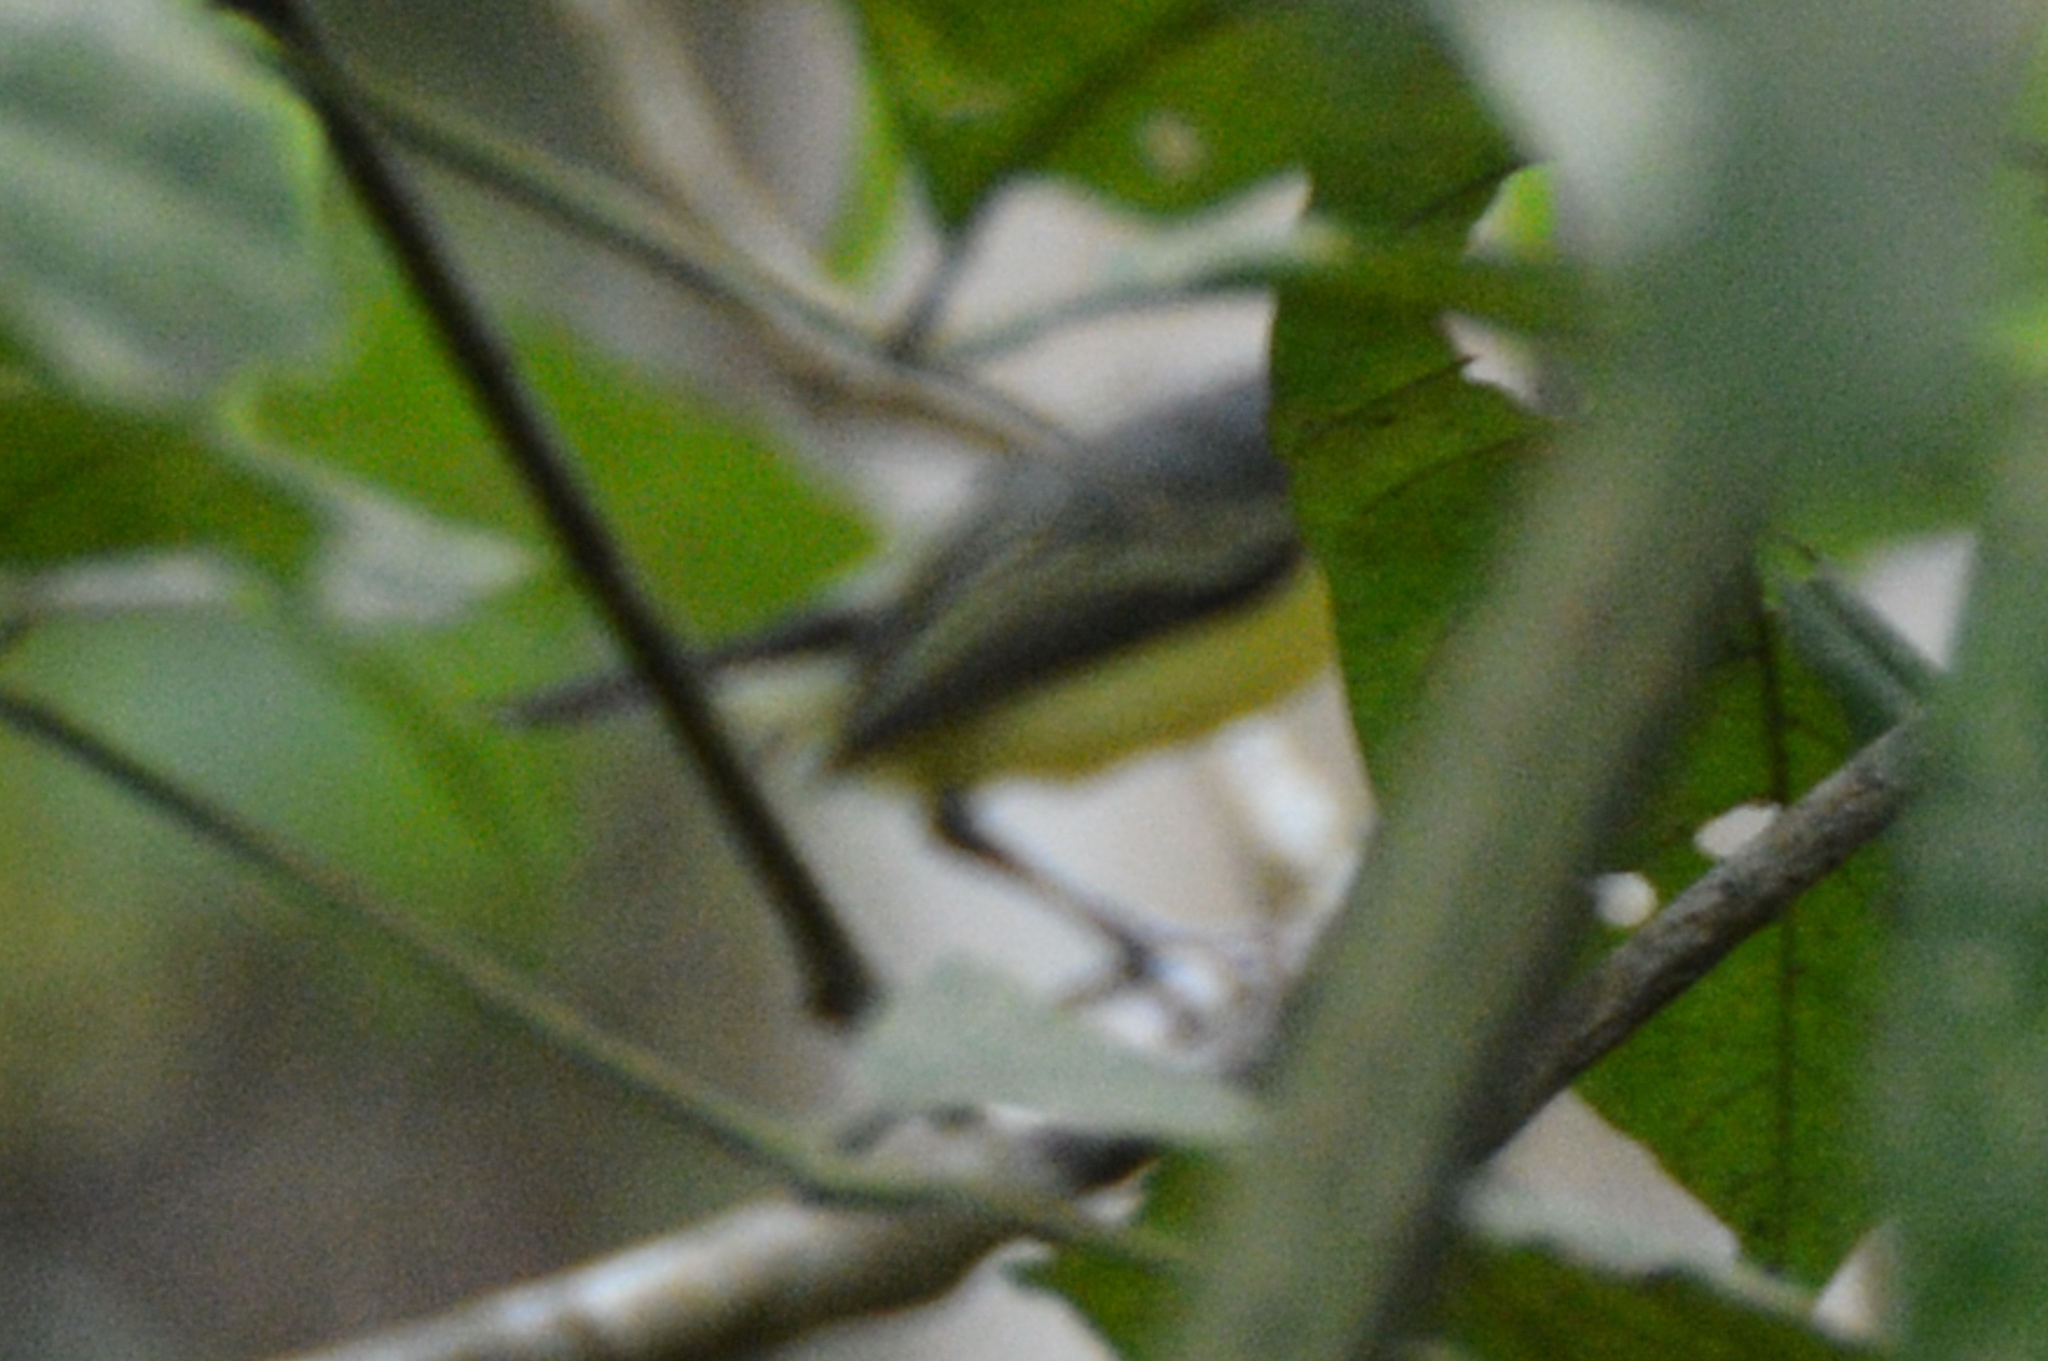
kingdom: Animalia
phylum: Chordata
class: Aves
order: Passeriformes
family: Tyrannidae
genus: Todirostrum
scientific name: Todirostrum cinereum
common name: Common tody-flycatcher
